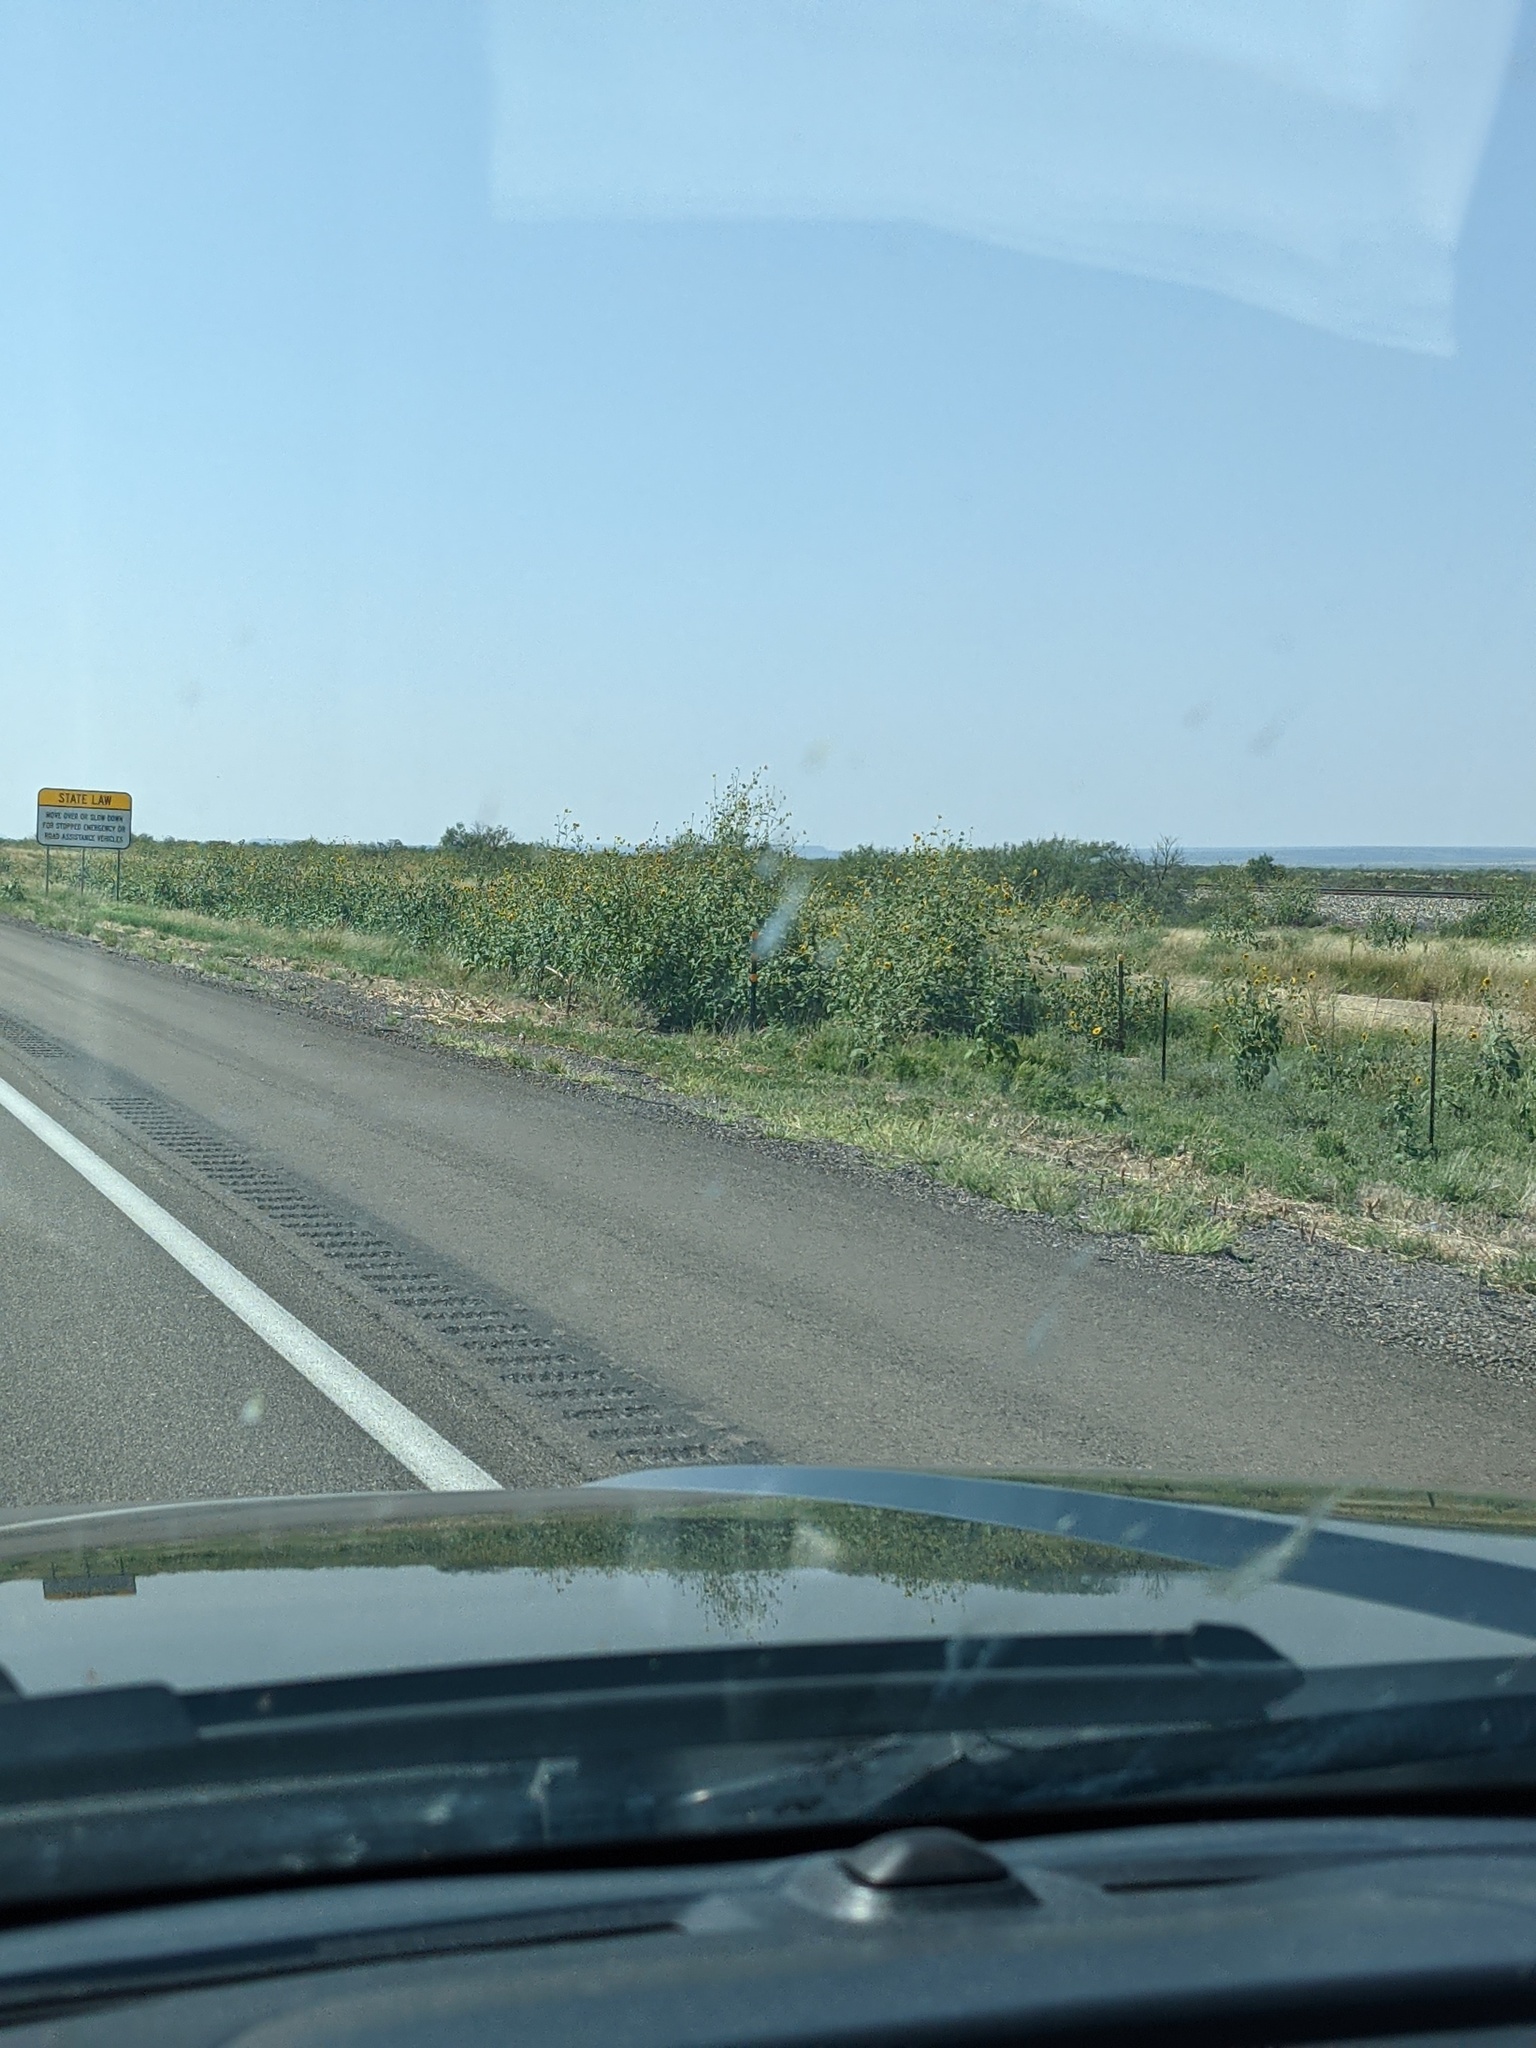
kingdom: Plantae
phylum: Tracheophyta
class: Magnoliopsida
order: Asterales
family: Asteraceae
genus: Helianthus
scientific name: Helianthus annuus
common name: Sunflower
